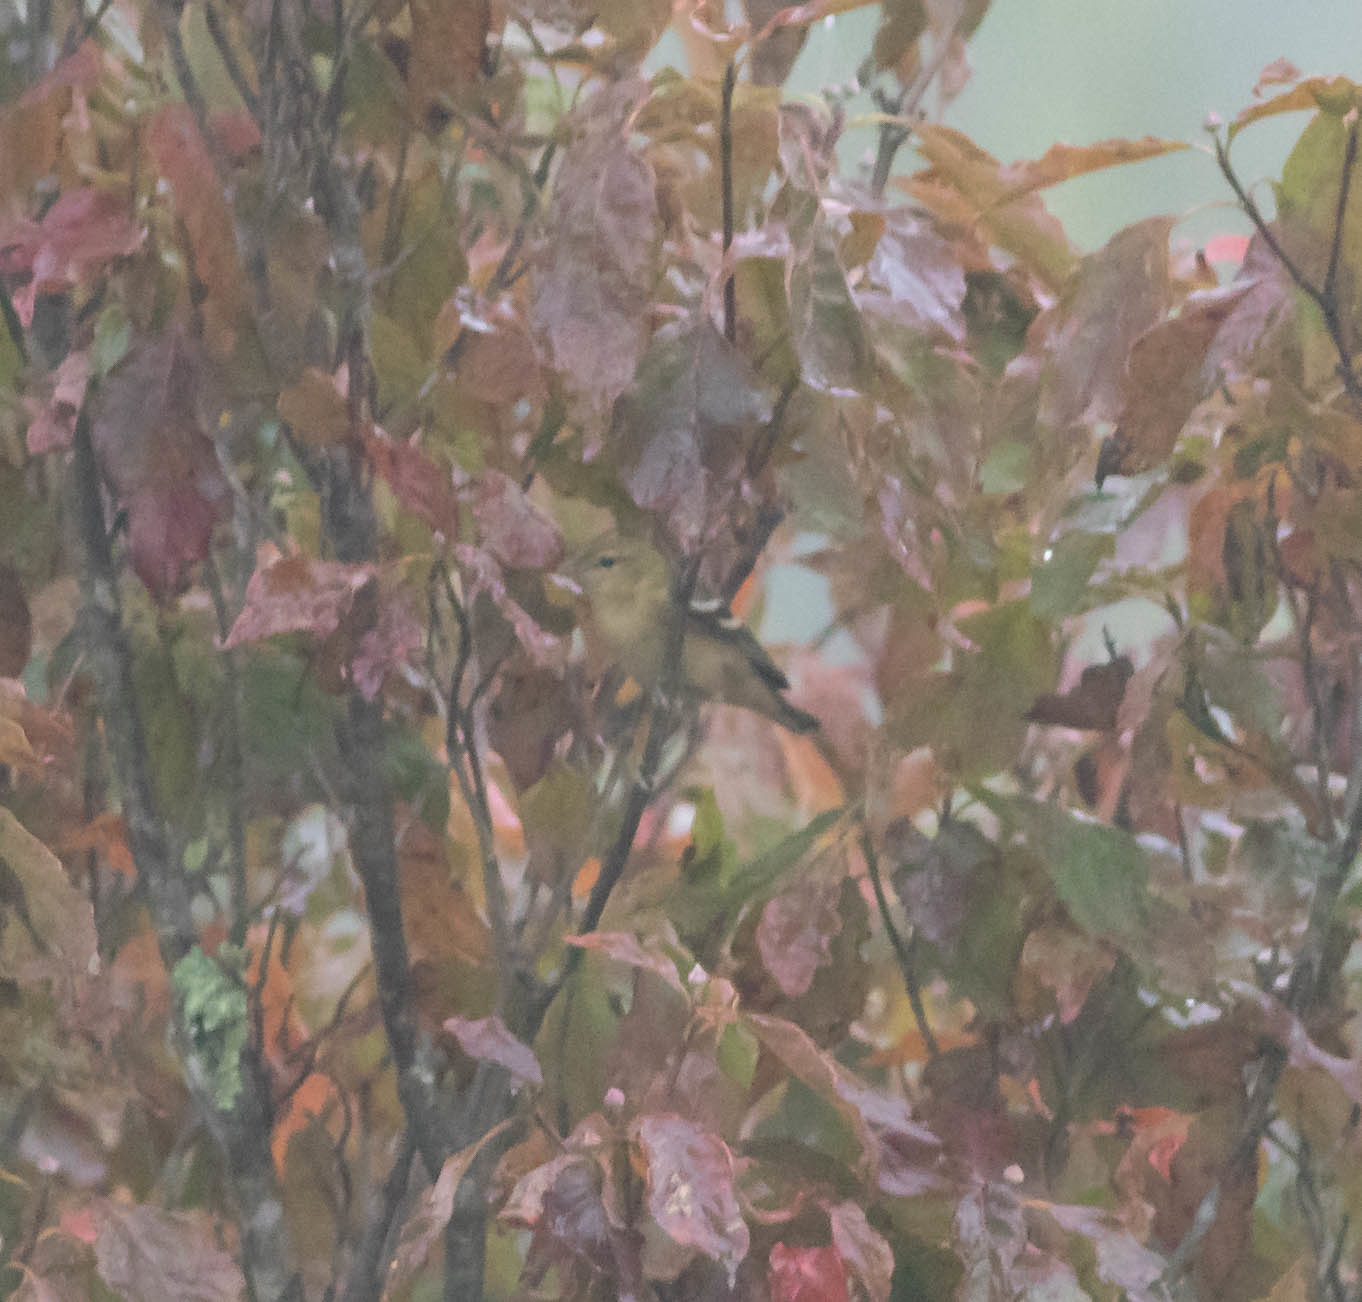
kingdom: Animalia
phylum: Chordata
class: Aves
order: Passeriformes
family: Parulidae
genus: Setophaga
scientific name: Setophaga castanea
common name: Bay-breasted warbler
